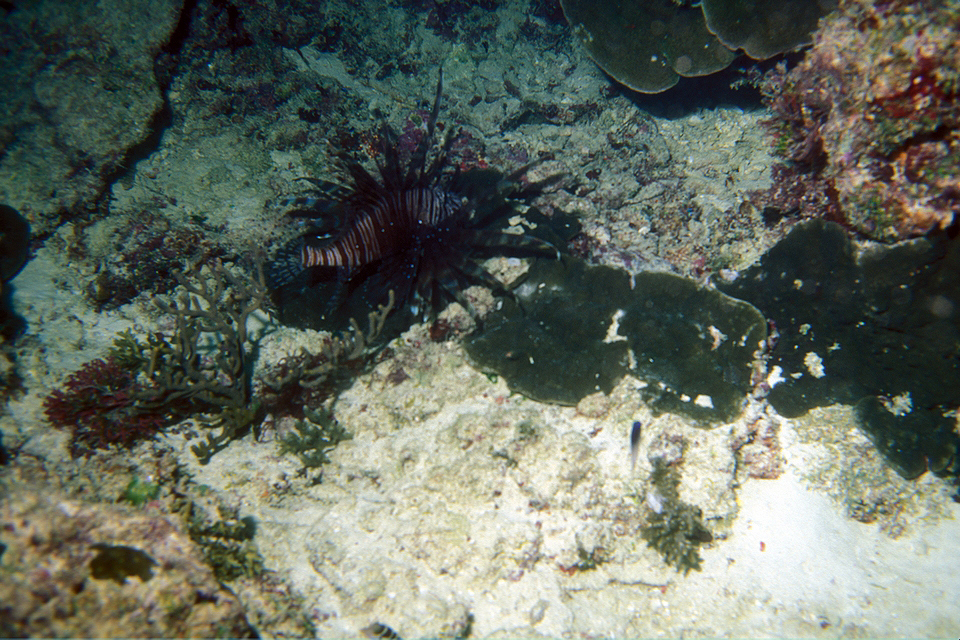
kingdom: Animalia
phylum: Chordata
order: Scorpaeniformes
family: Scorpaenidae
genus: Pterois
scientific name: Pterois volitans
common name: Lionfish
